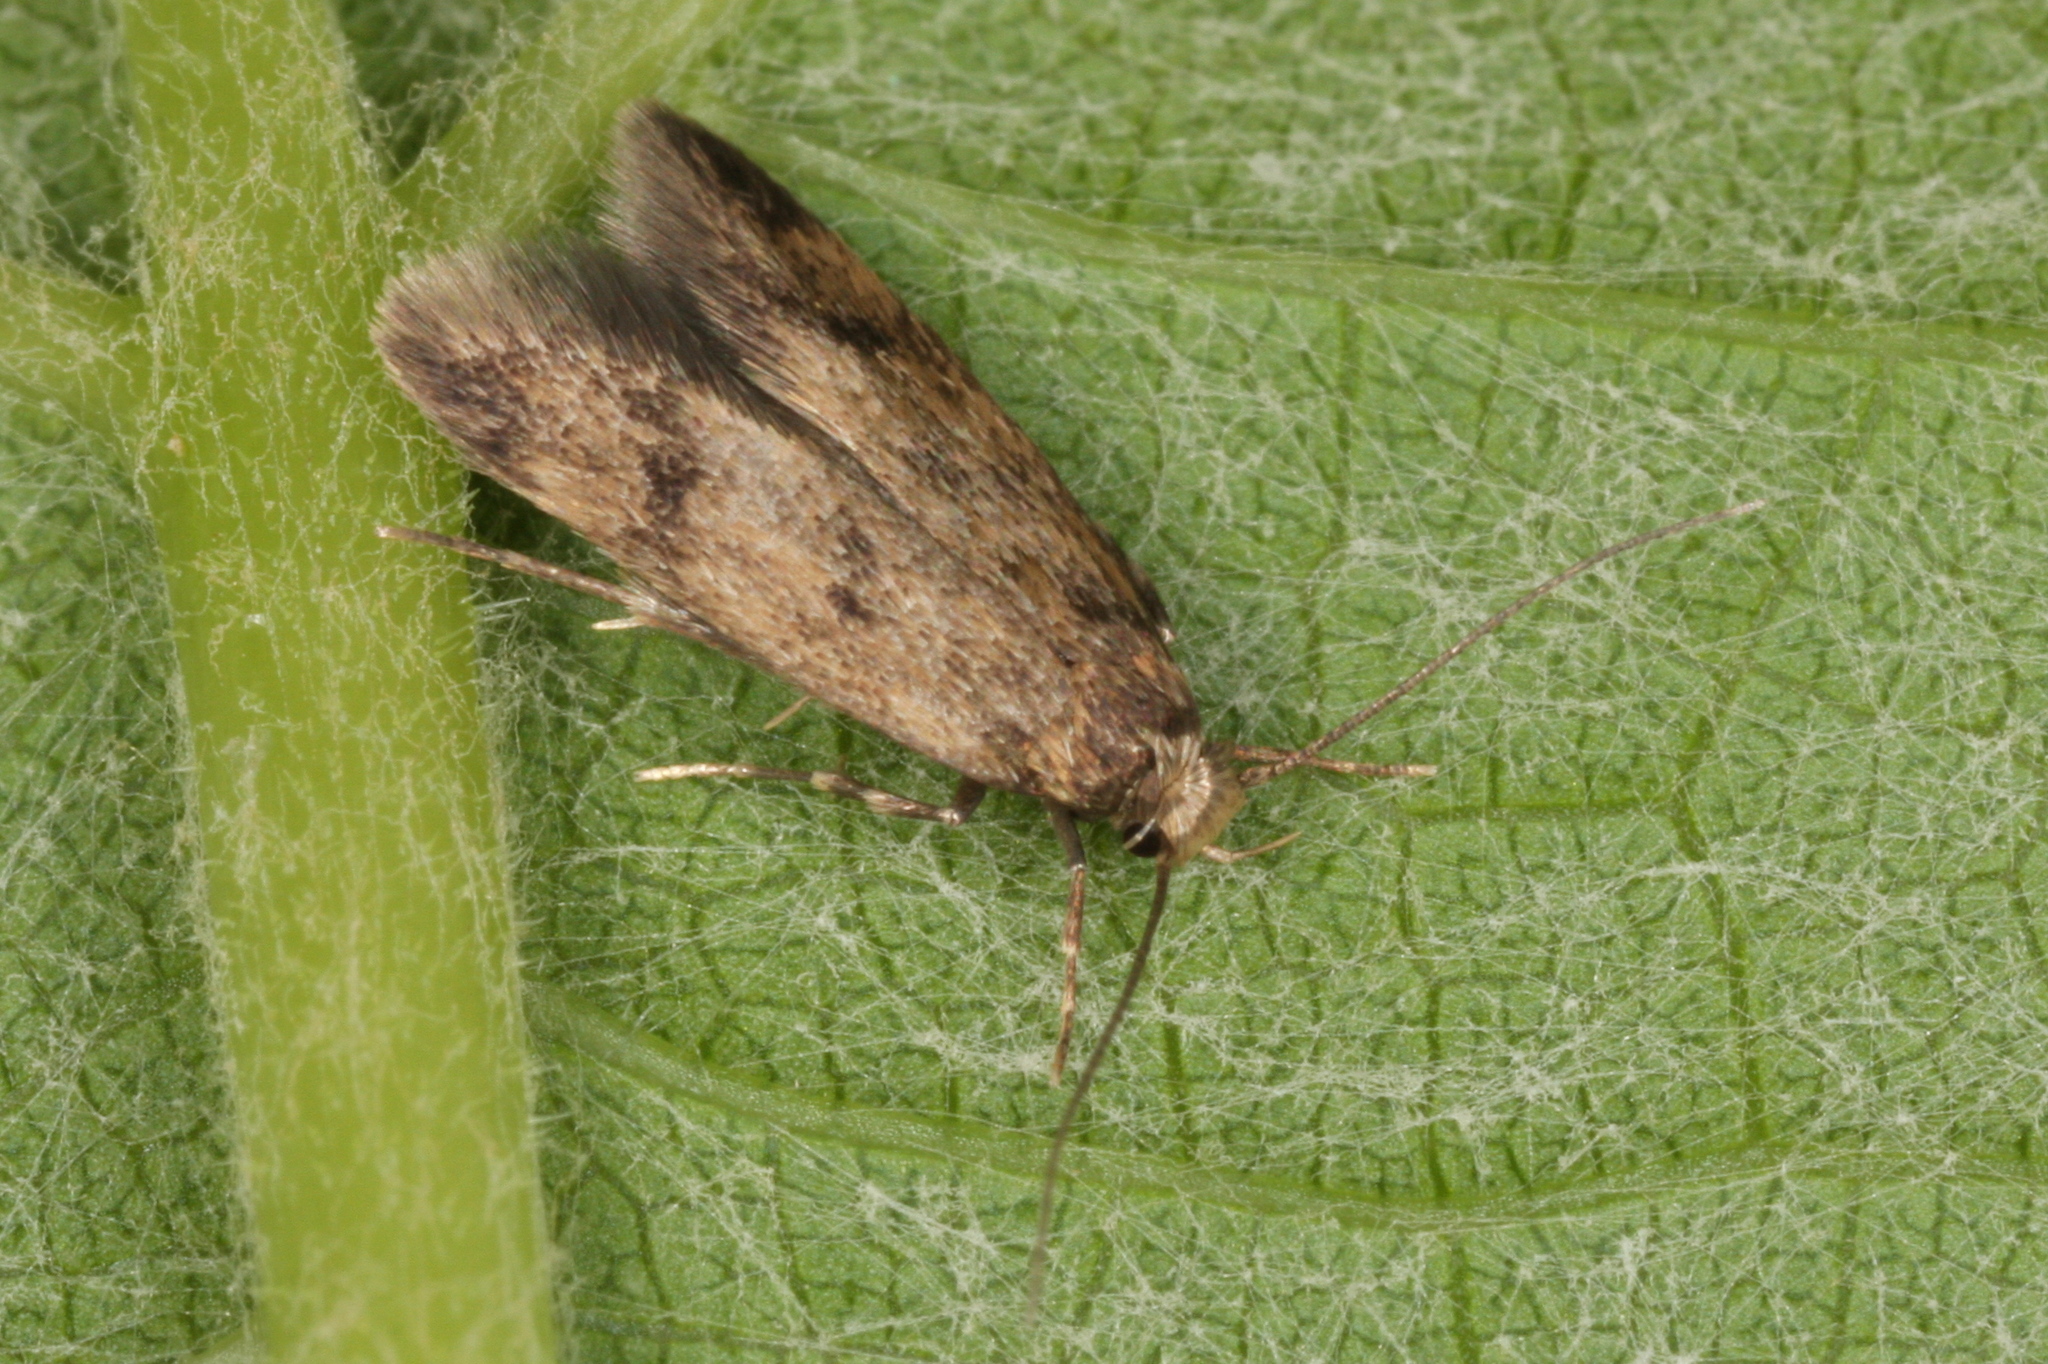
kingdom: Animalia
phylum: Arthropoda
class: Insecta
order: Lepidoptera
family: Oecophoridae
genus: Borkhausenia
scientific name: Borkhausenia fuscescens
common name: Small dingy tubic
